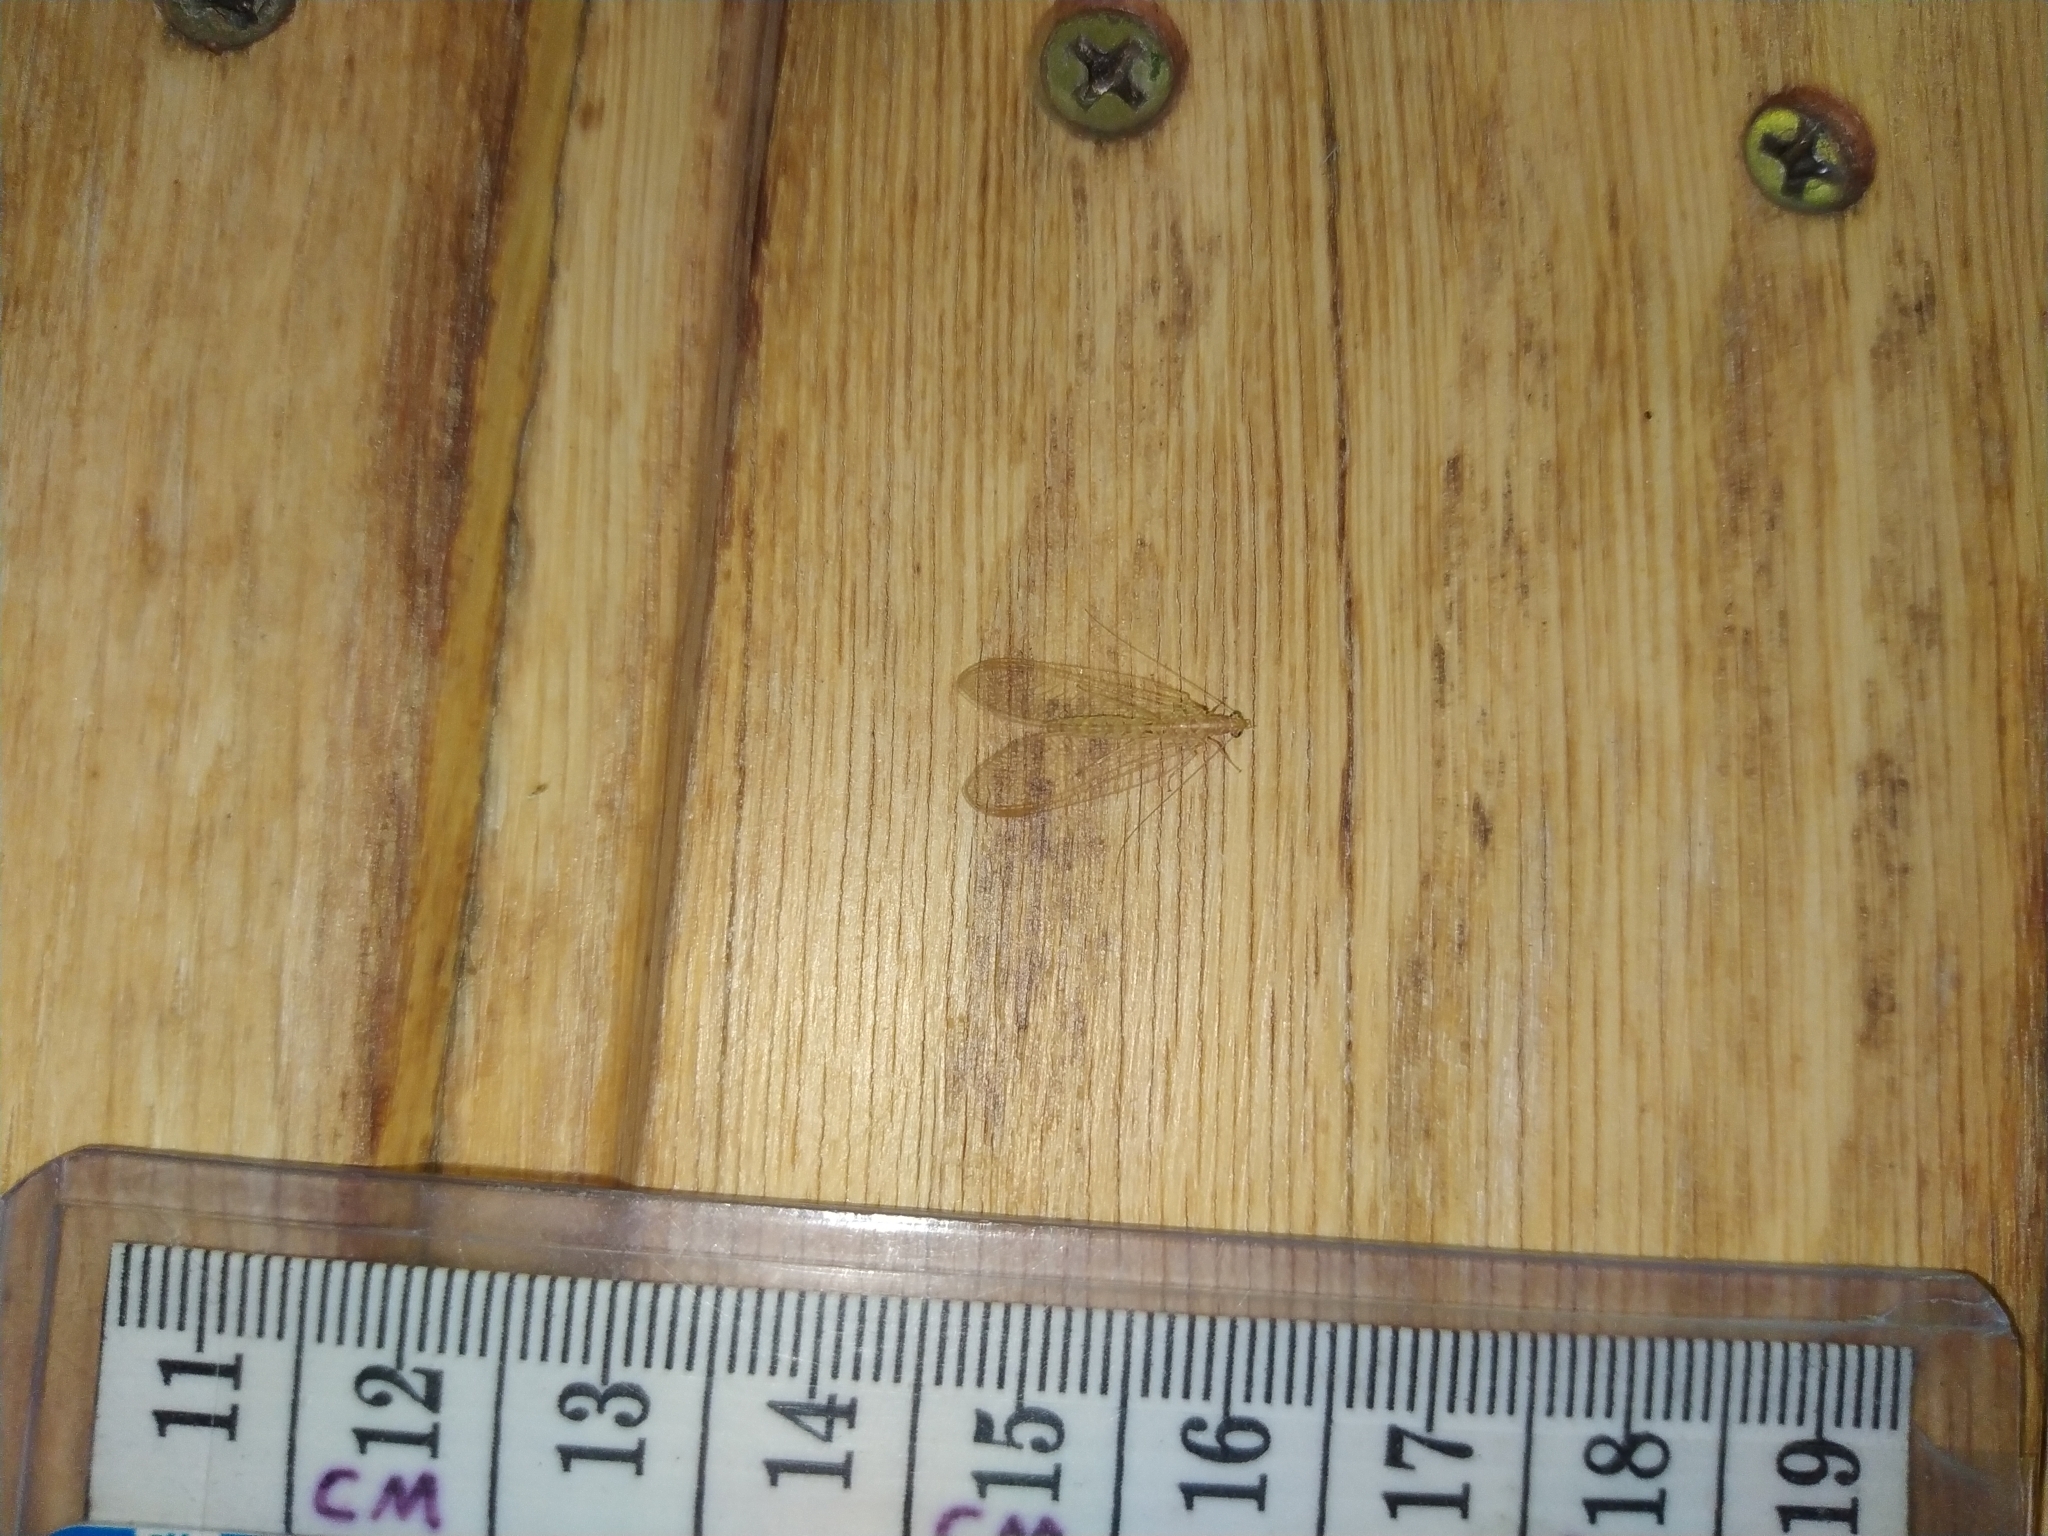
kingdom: Animalia
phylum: Arthropoda
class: Insecta
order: Neuroptera
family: Chrysopidae
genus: Chrysoperla
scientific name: Chrysoperla
